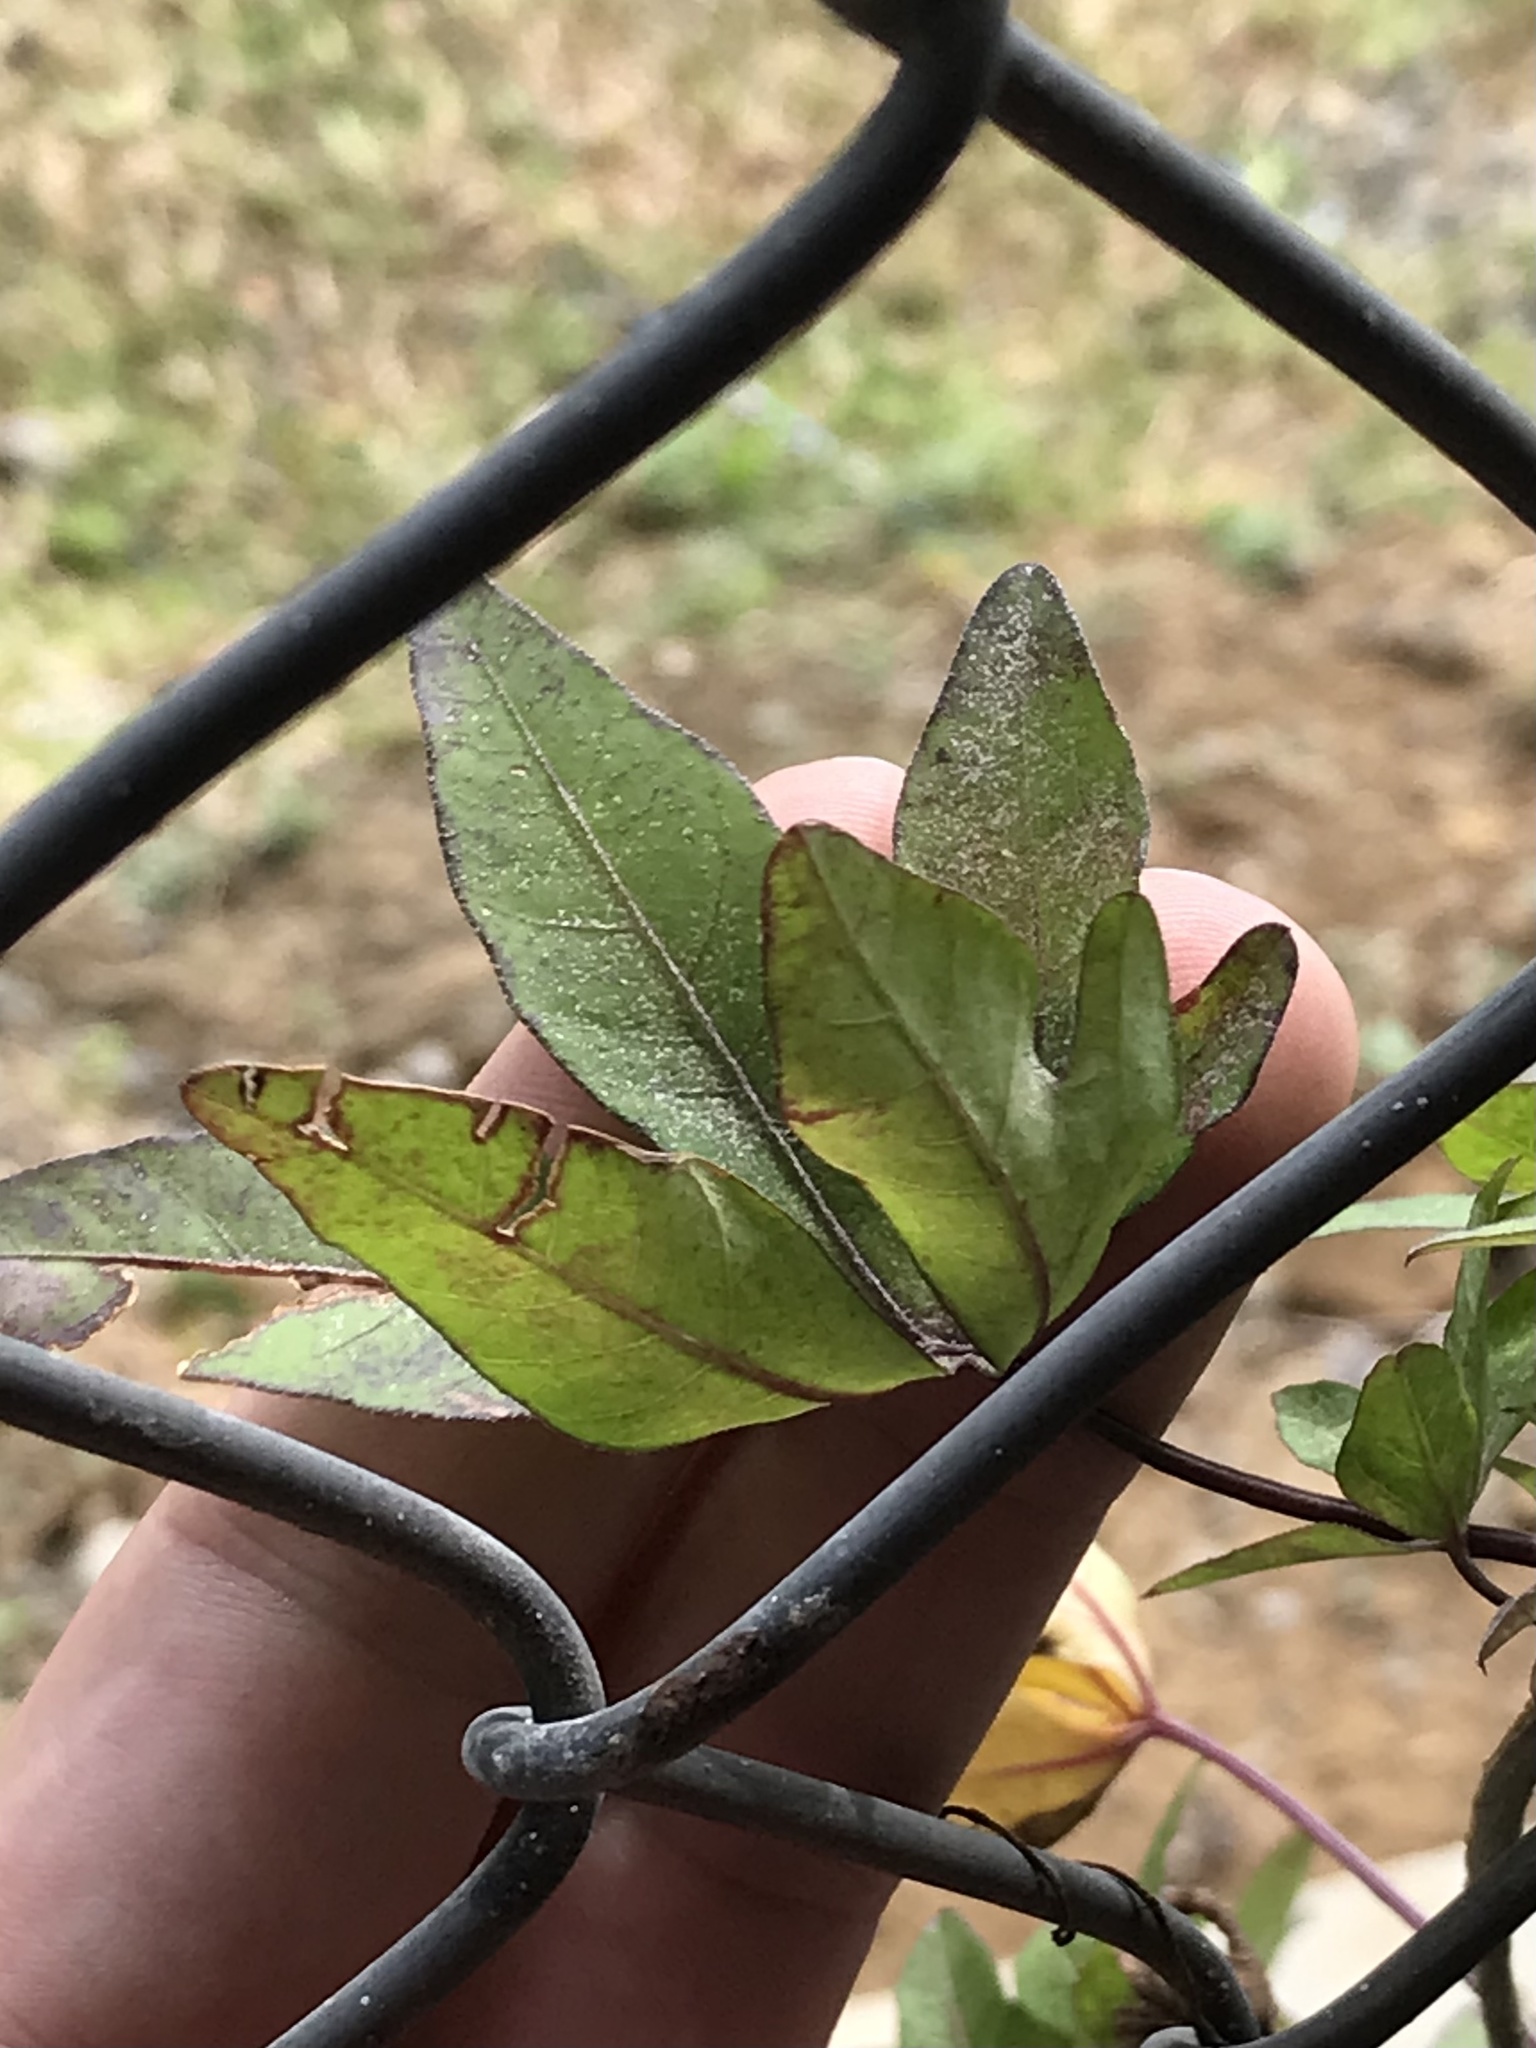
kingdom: Plantae
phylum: Tracheophyta
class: Magnoliopsida
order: Solanales
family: Convolvulaceae
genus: Ipomoea
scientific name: Ipomoea cairica
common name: Mile a minute vine
